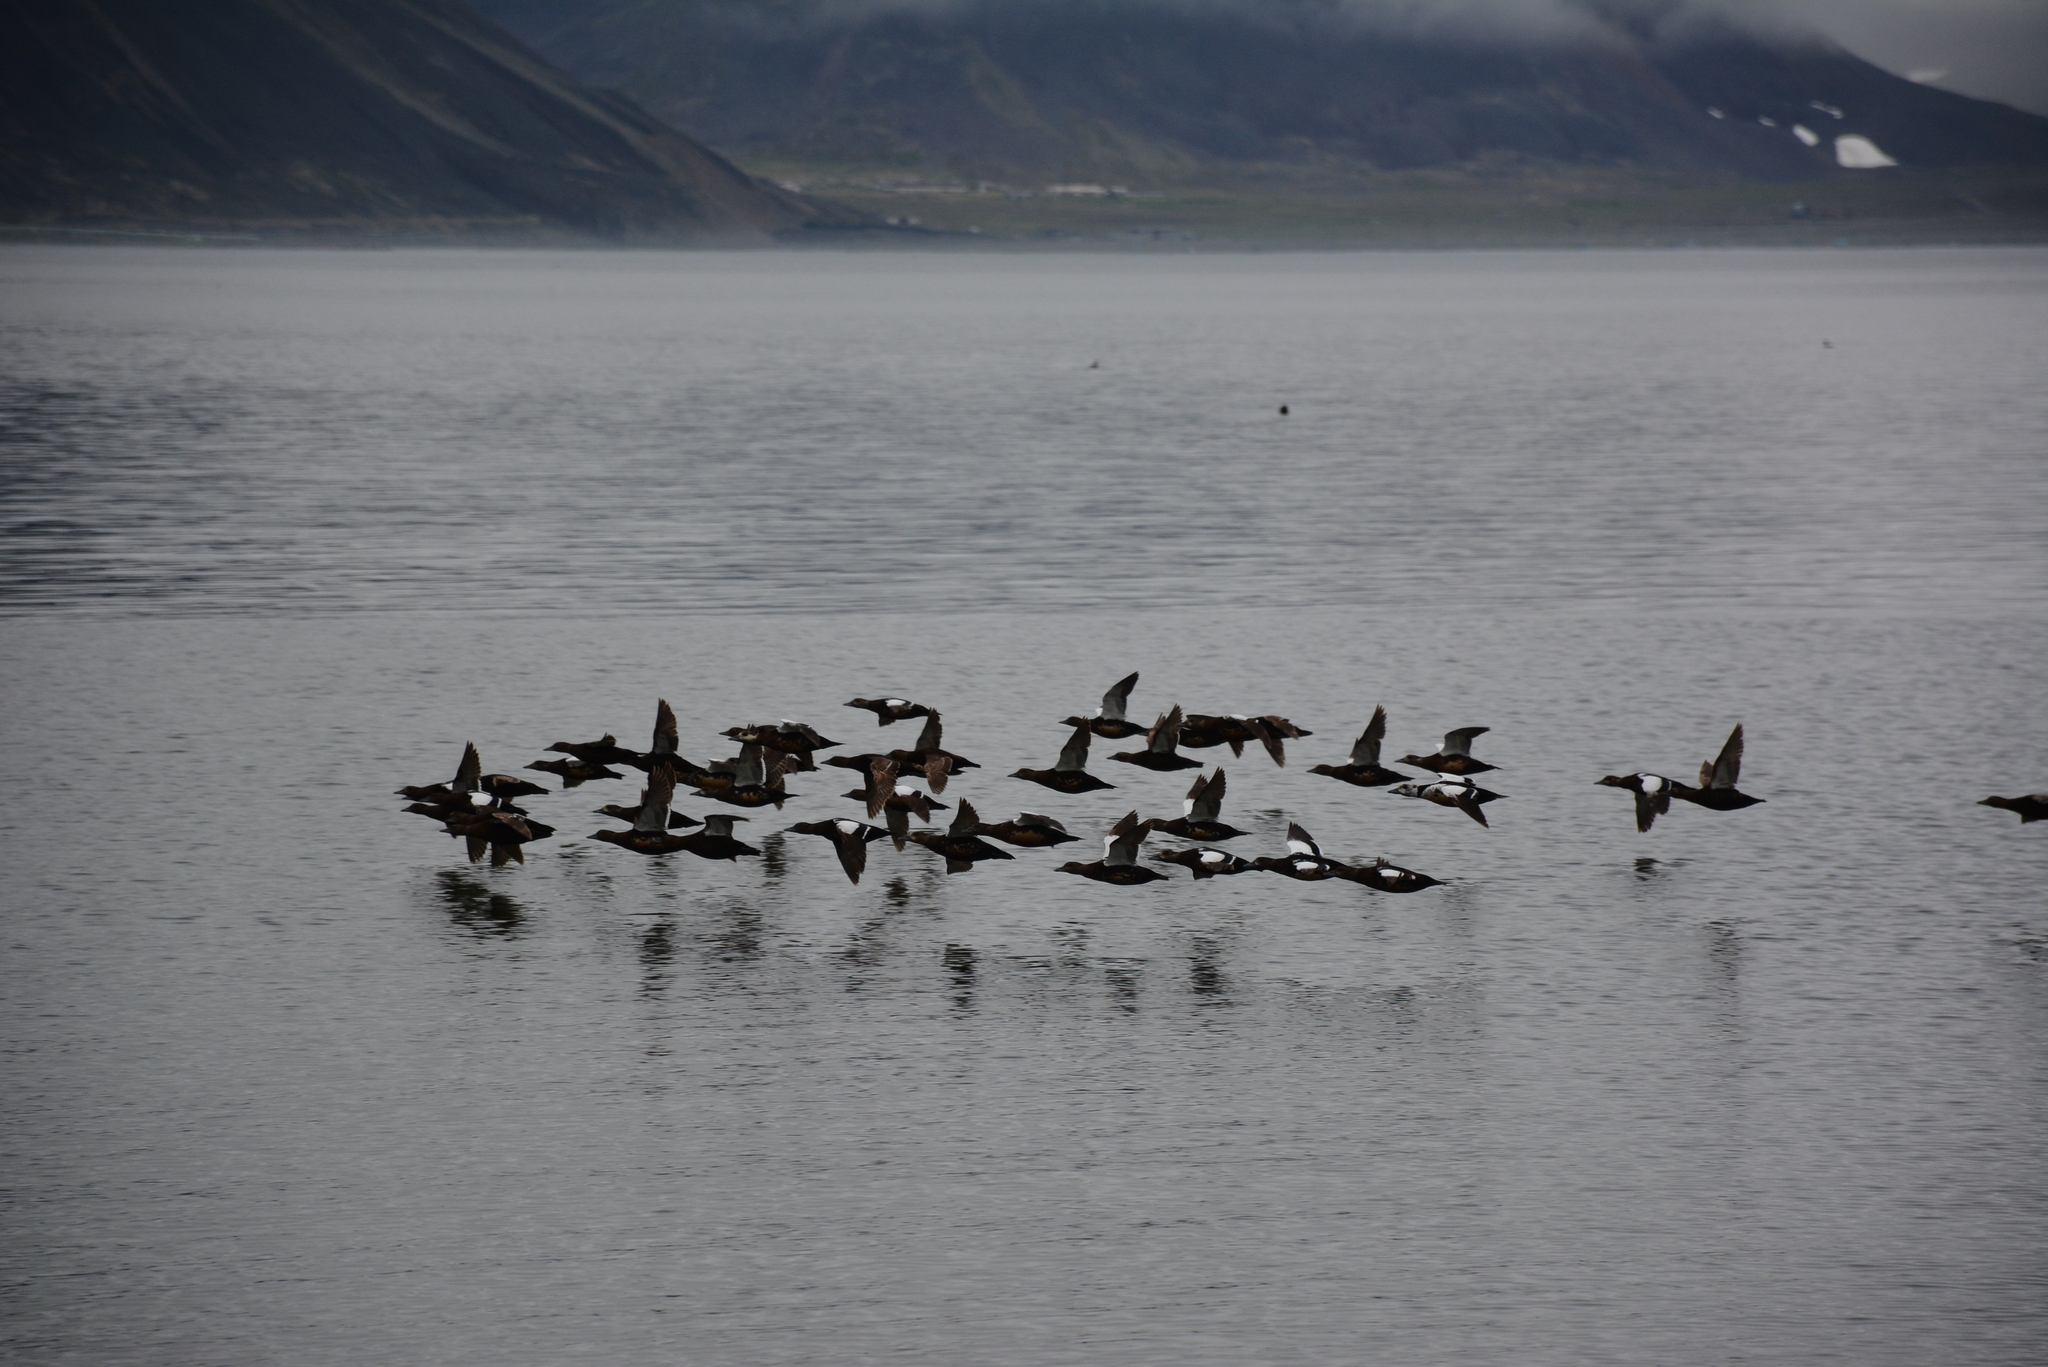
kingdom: Animalia
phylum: Chordata
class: Aves
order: Anseriformes
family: Anatidae
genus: Polysticta
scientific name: Polysticta stelleri
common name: Steller's eider
